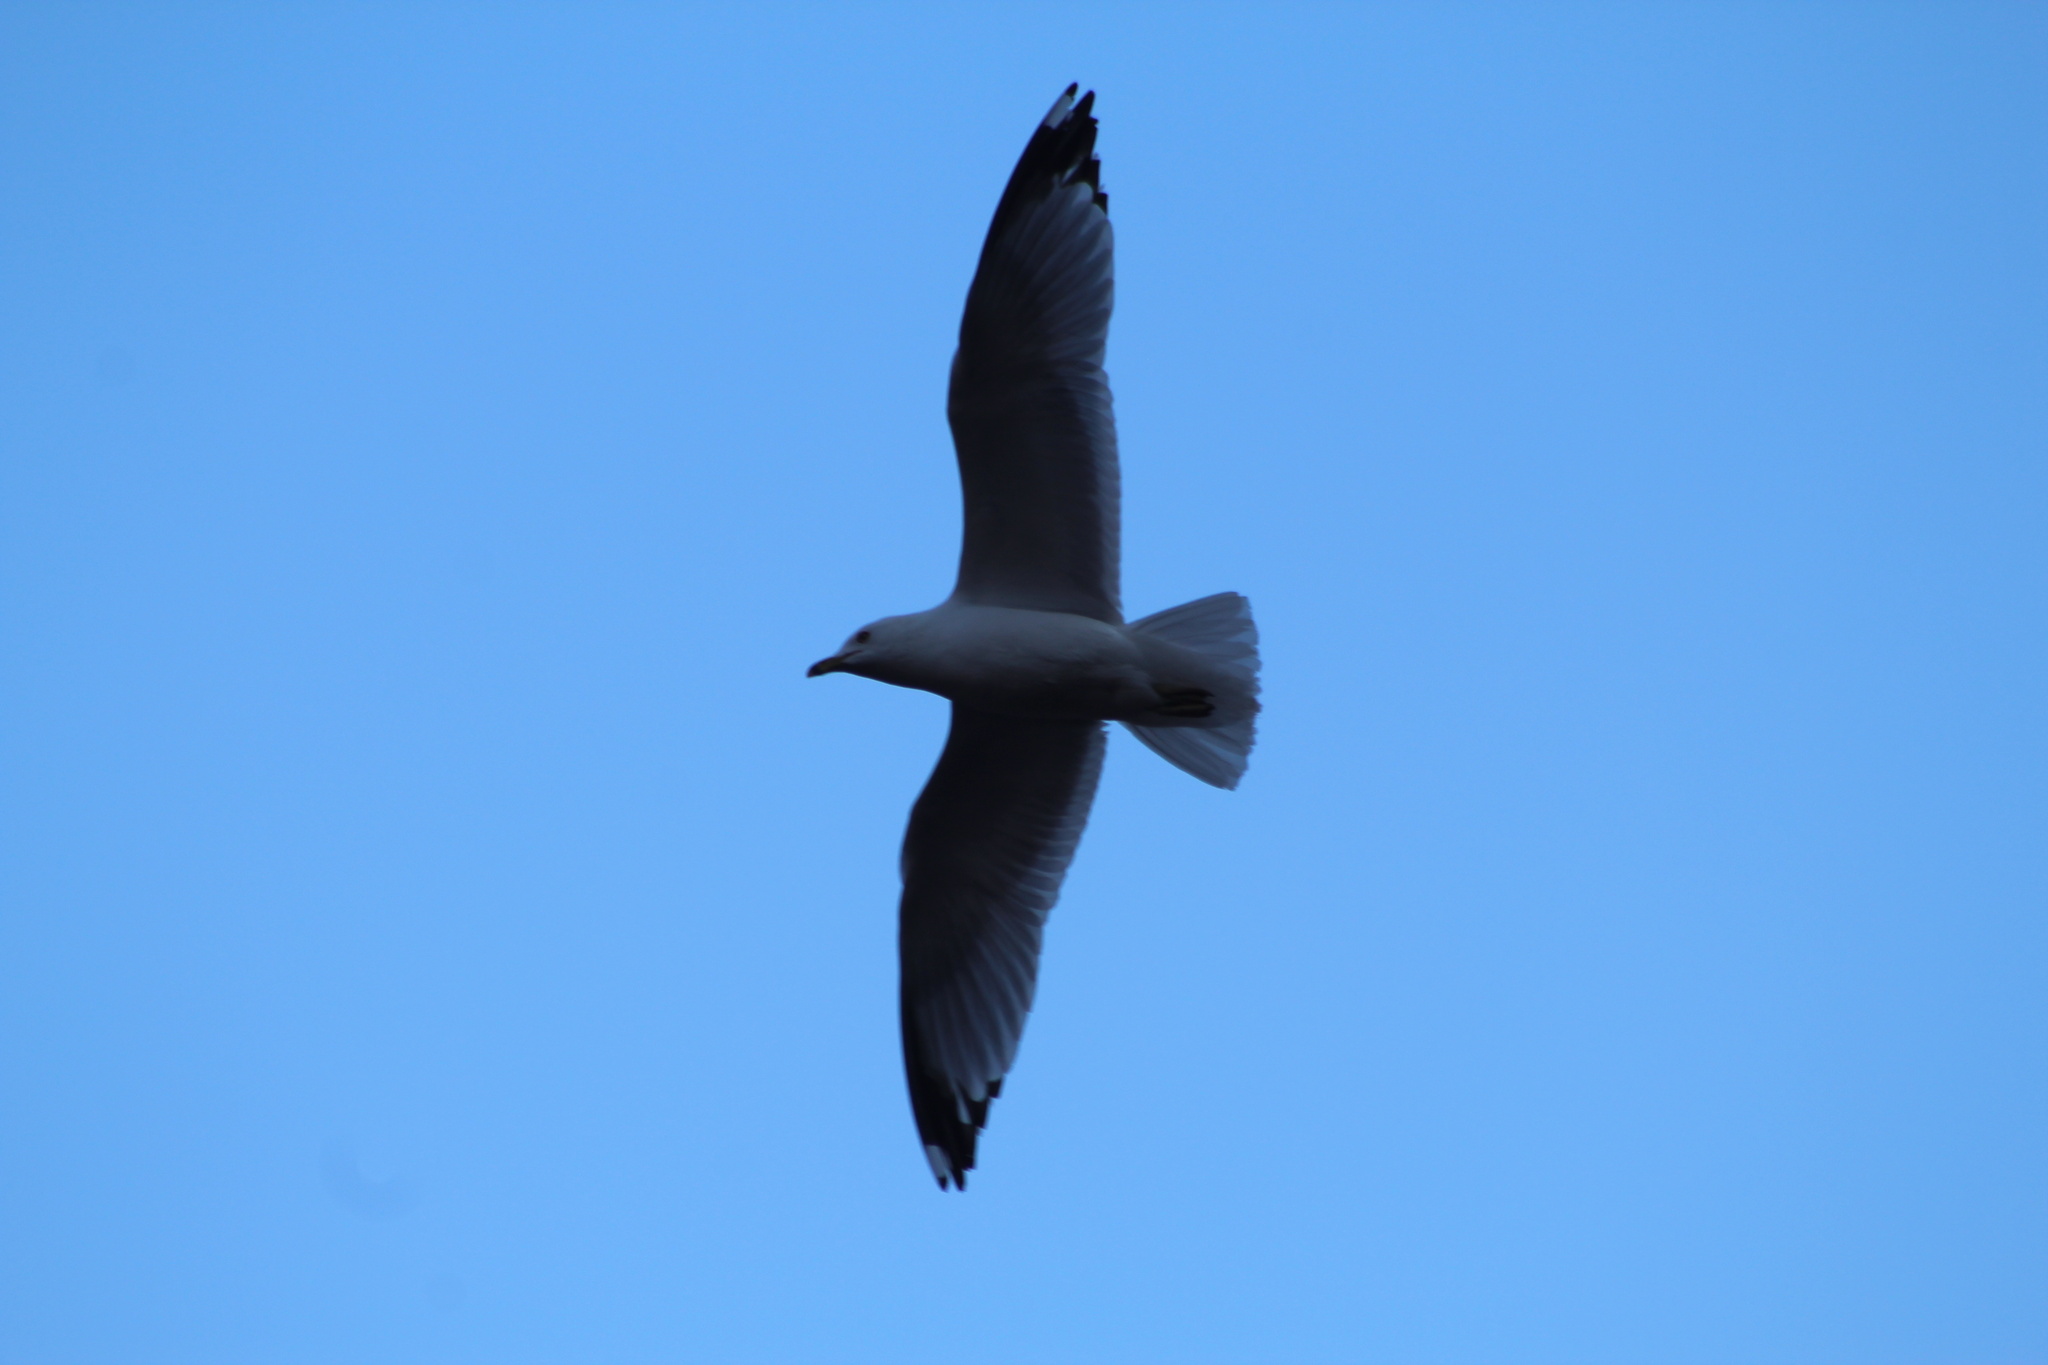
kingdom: Animalia
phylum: Chordata
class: Aves
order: Charadriiformes
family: Laridae
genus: Larus
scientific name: Larus delawarensis
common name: Ring-billed gull
